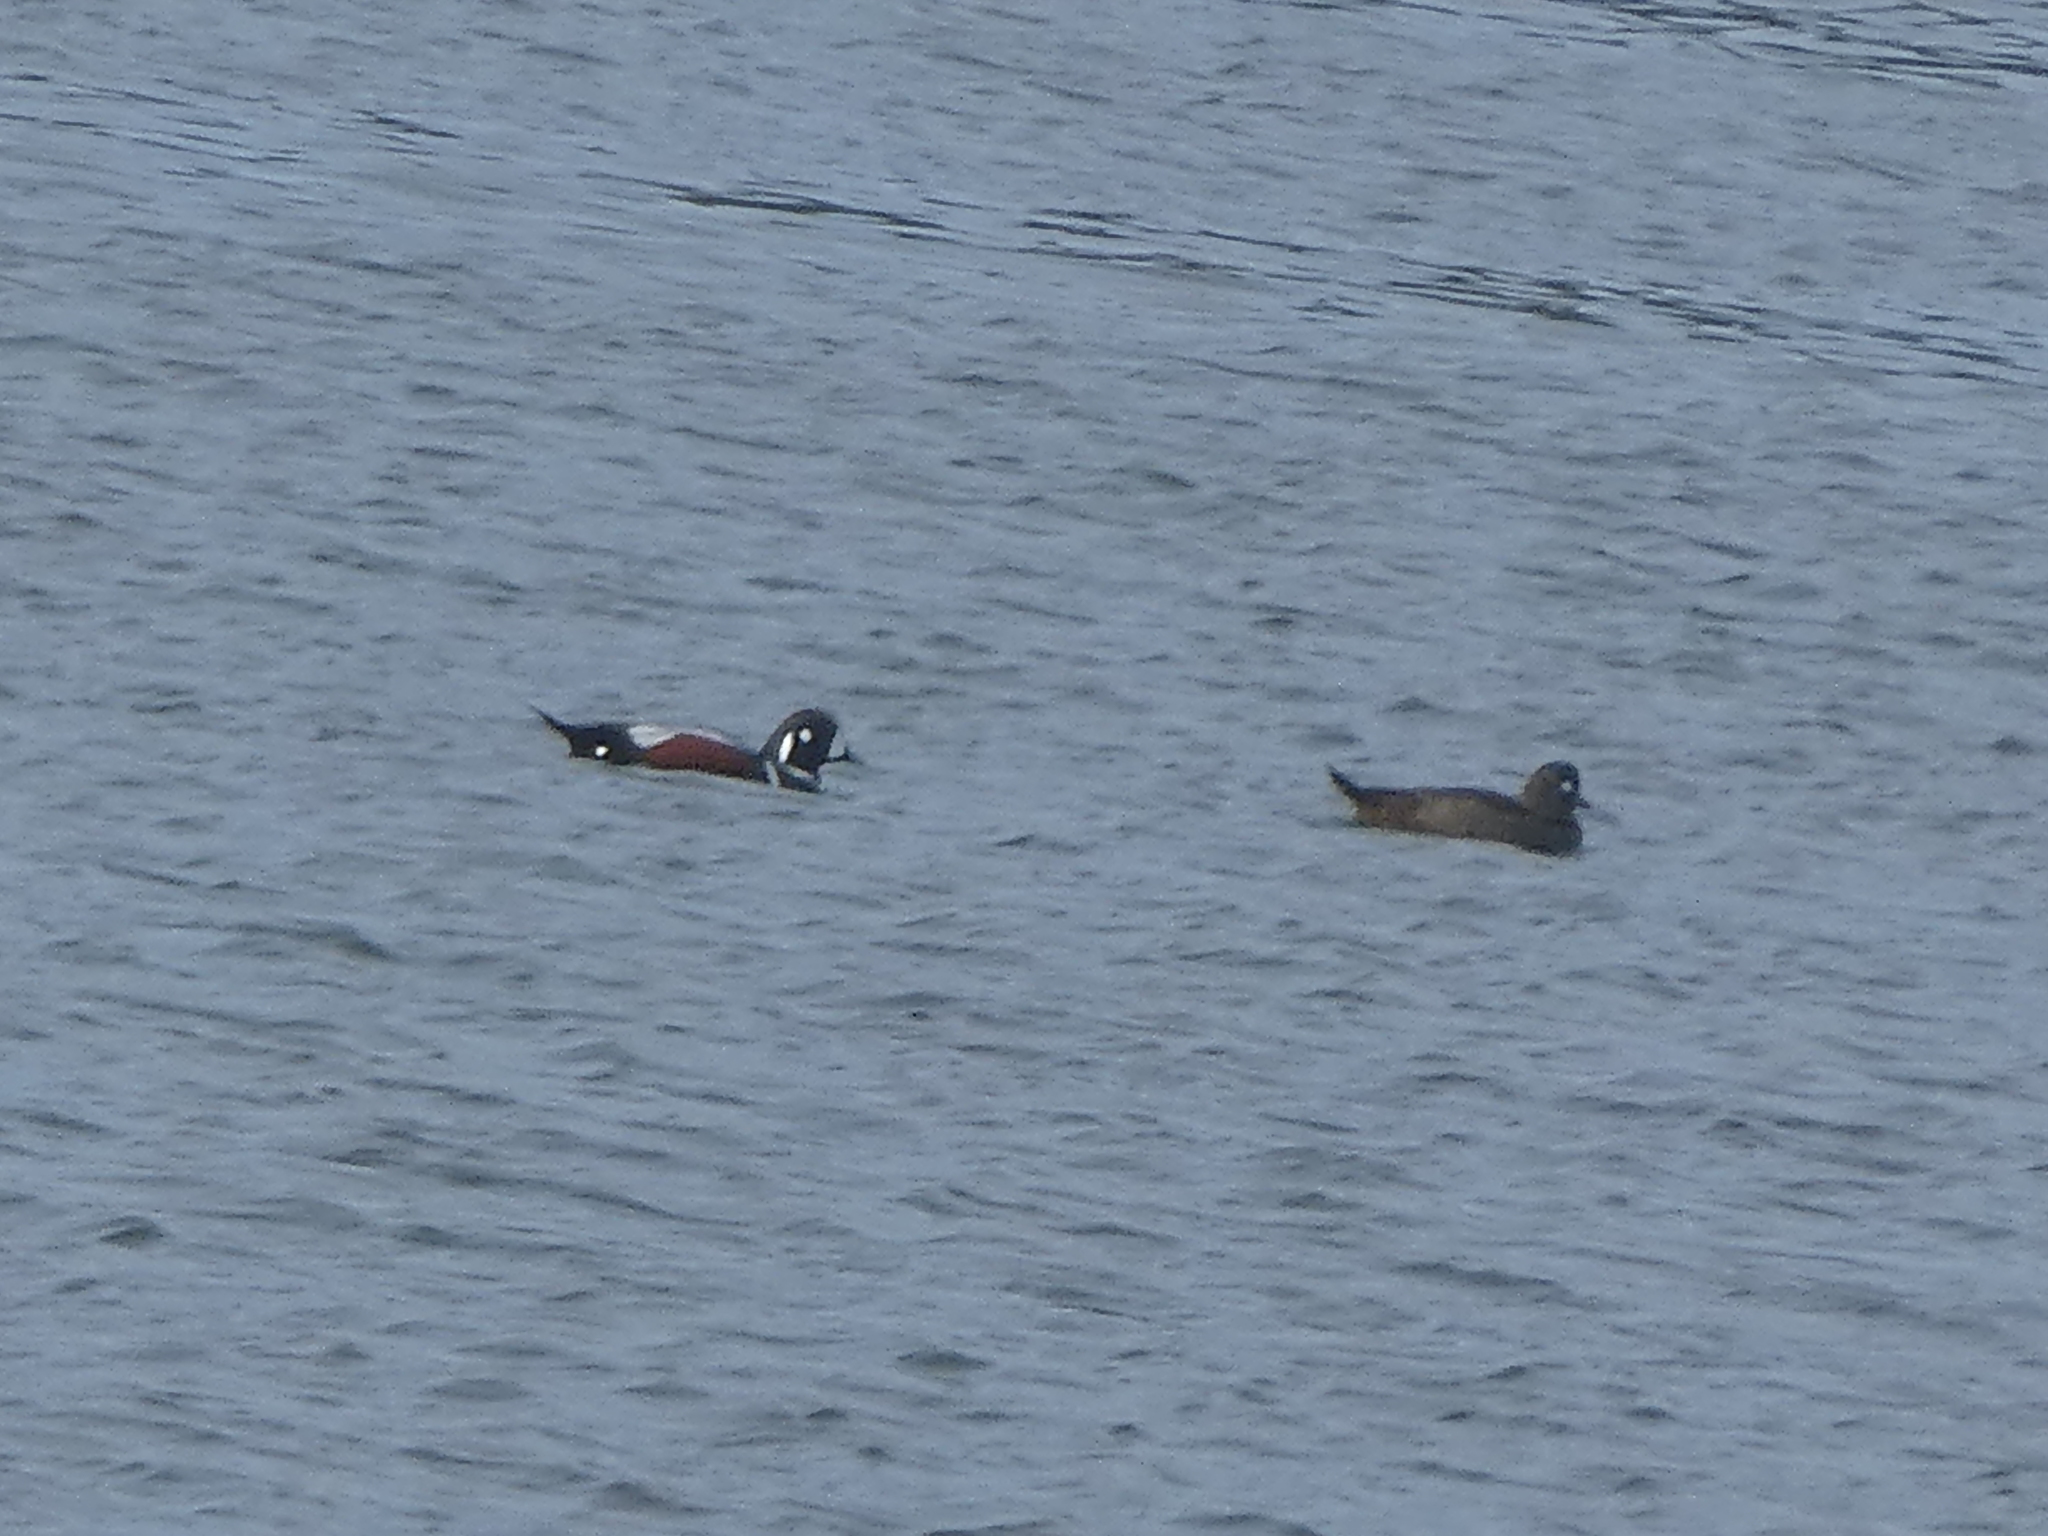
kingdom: Animalia
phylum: Chordata
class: Aves
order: Anseriformes
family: Anatidae
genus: Histrionicus
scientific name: Histrionicus histrionicus
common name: Harlequin duck
